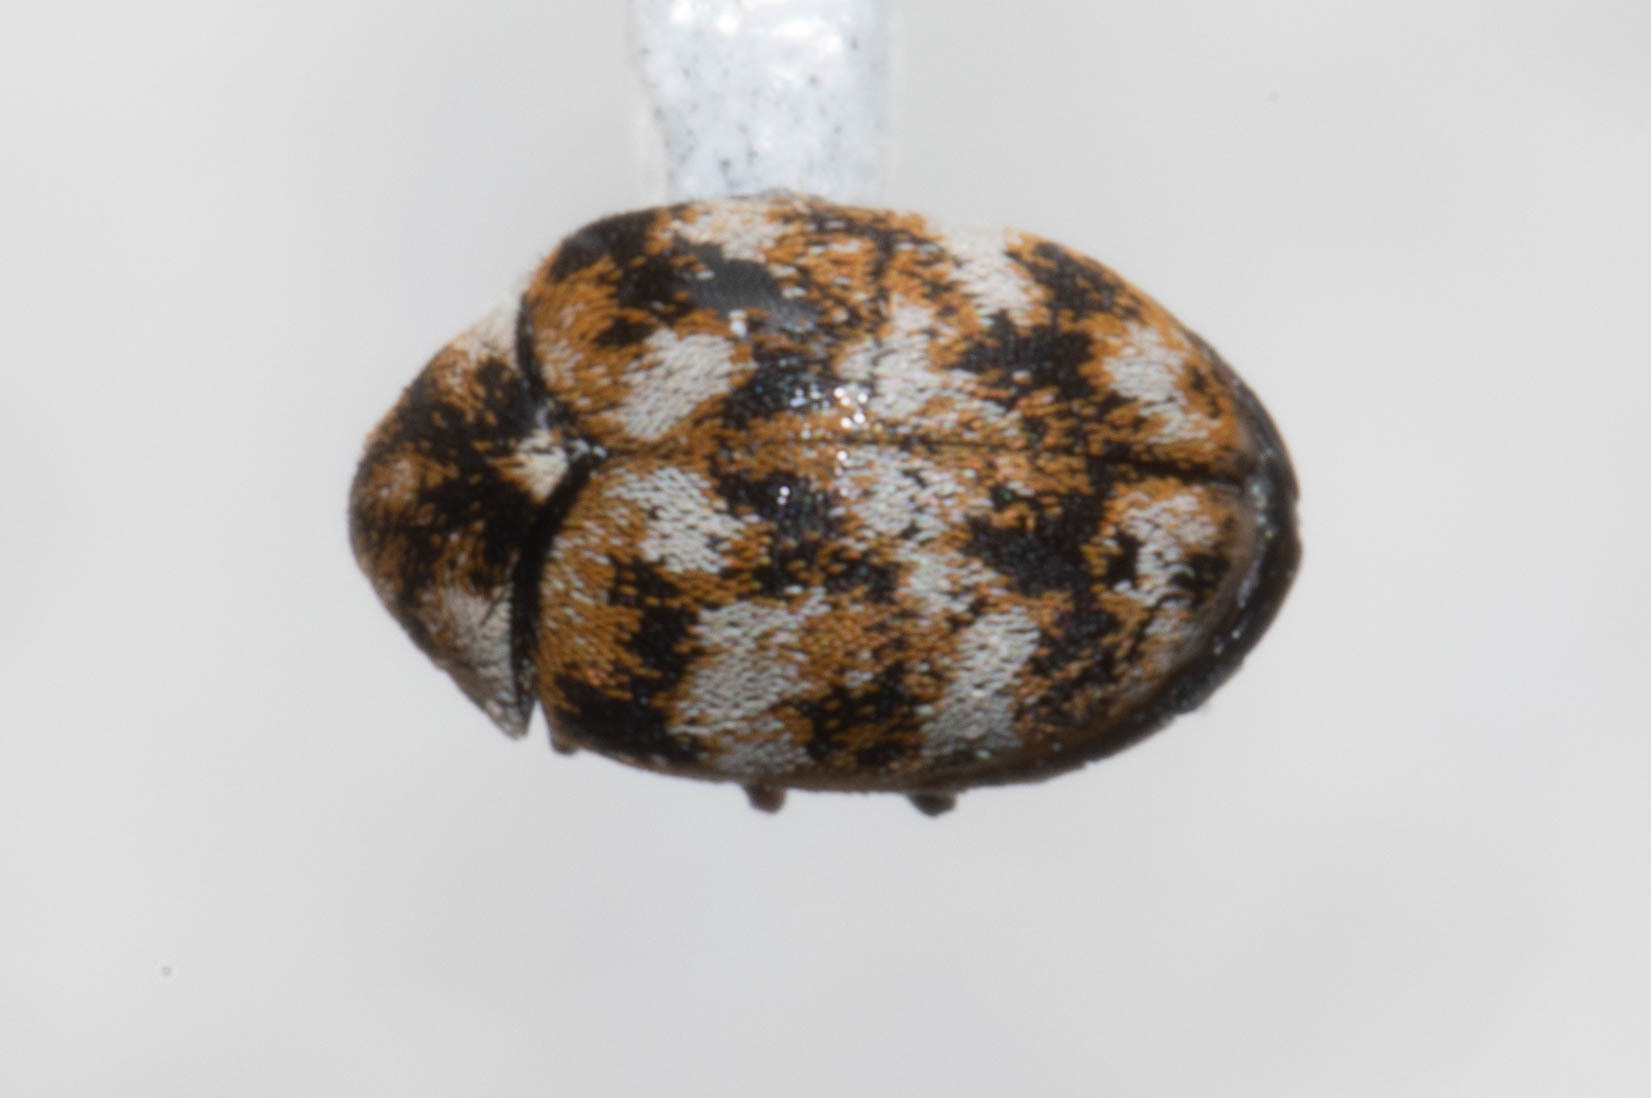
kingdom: Animalia
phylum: Arthropoda
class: Insecta
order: Coleoptera
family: Dermestidae
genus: Anthrenus
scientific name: Anthrenus verbasci
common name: Varied carpet beetle
